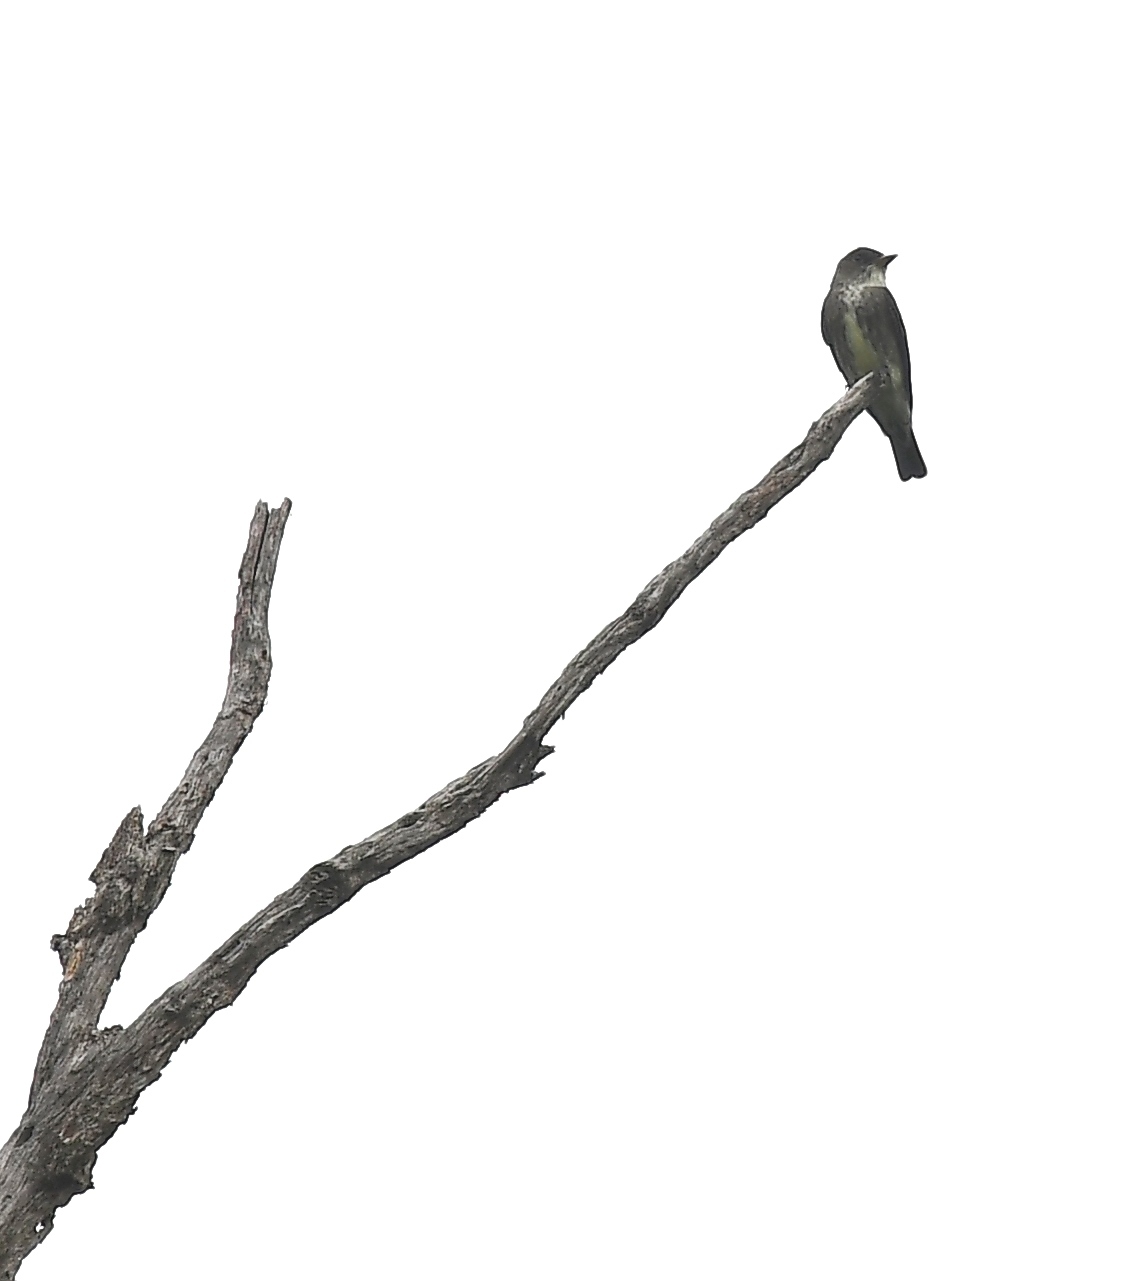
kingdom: Animalia
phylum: Chordata
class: Aves
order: Passeriformes
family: Tyrannidae
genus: Contopus
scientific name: Contopus cooperi
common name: Olive-sided flycatcher
